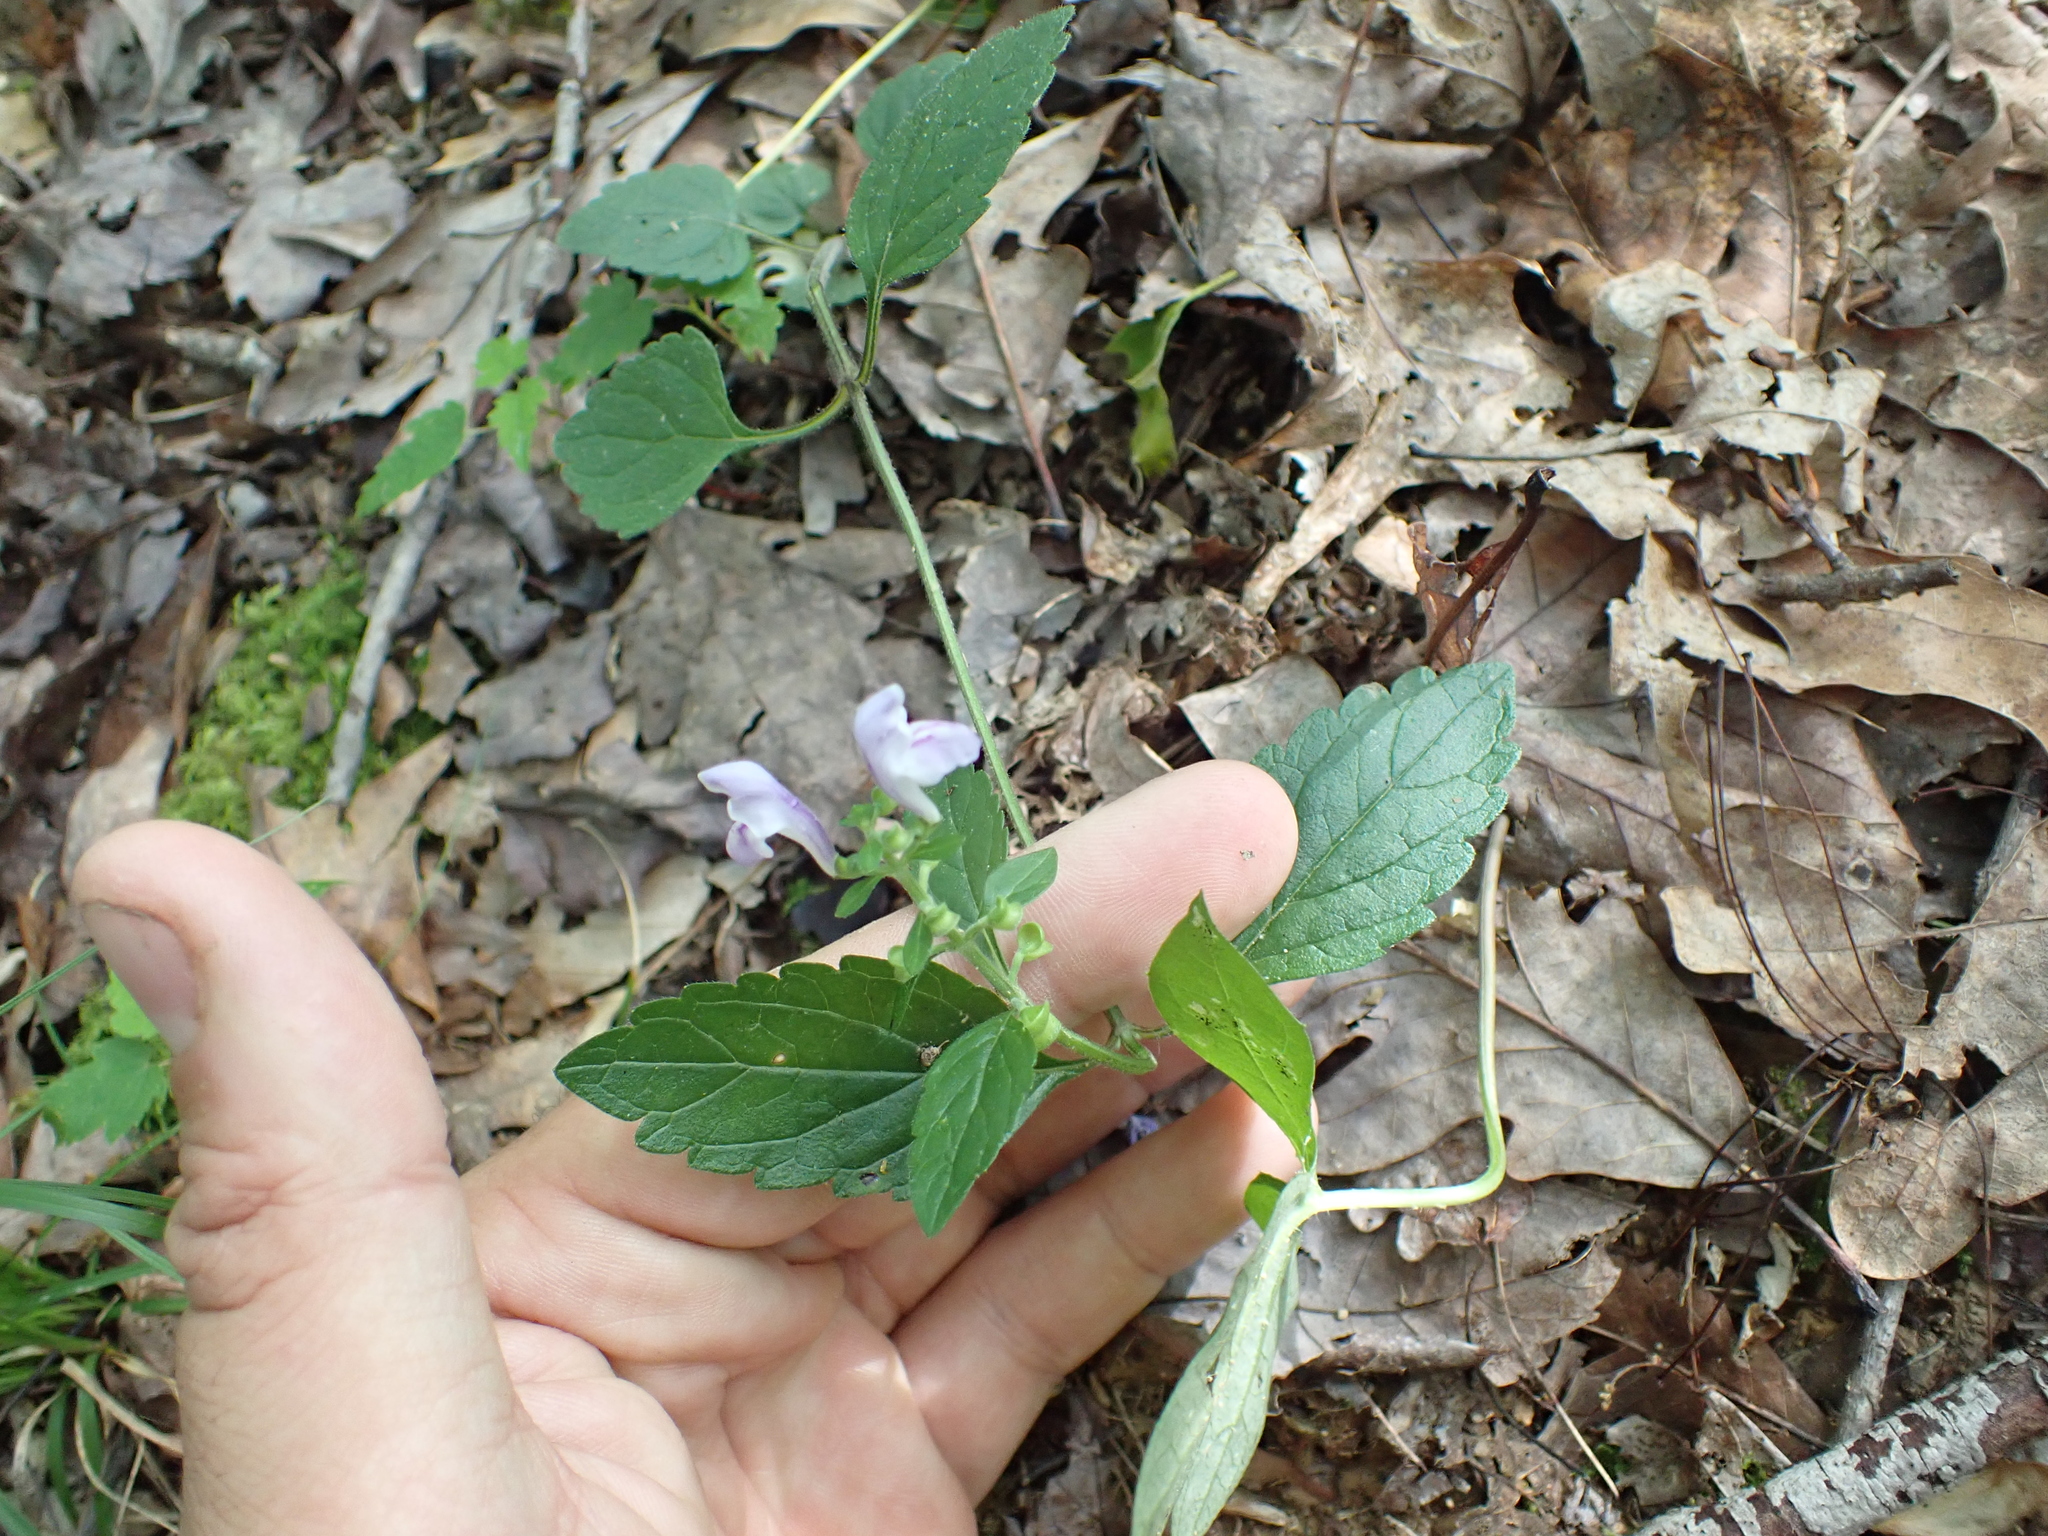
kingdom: Plantae
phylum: Tracheophyta
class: Magnoliopsida
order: Lamiales
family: Lamiaceae
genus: Scutellaria
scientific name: Scutellaria elliptica
